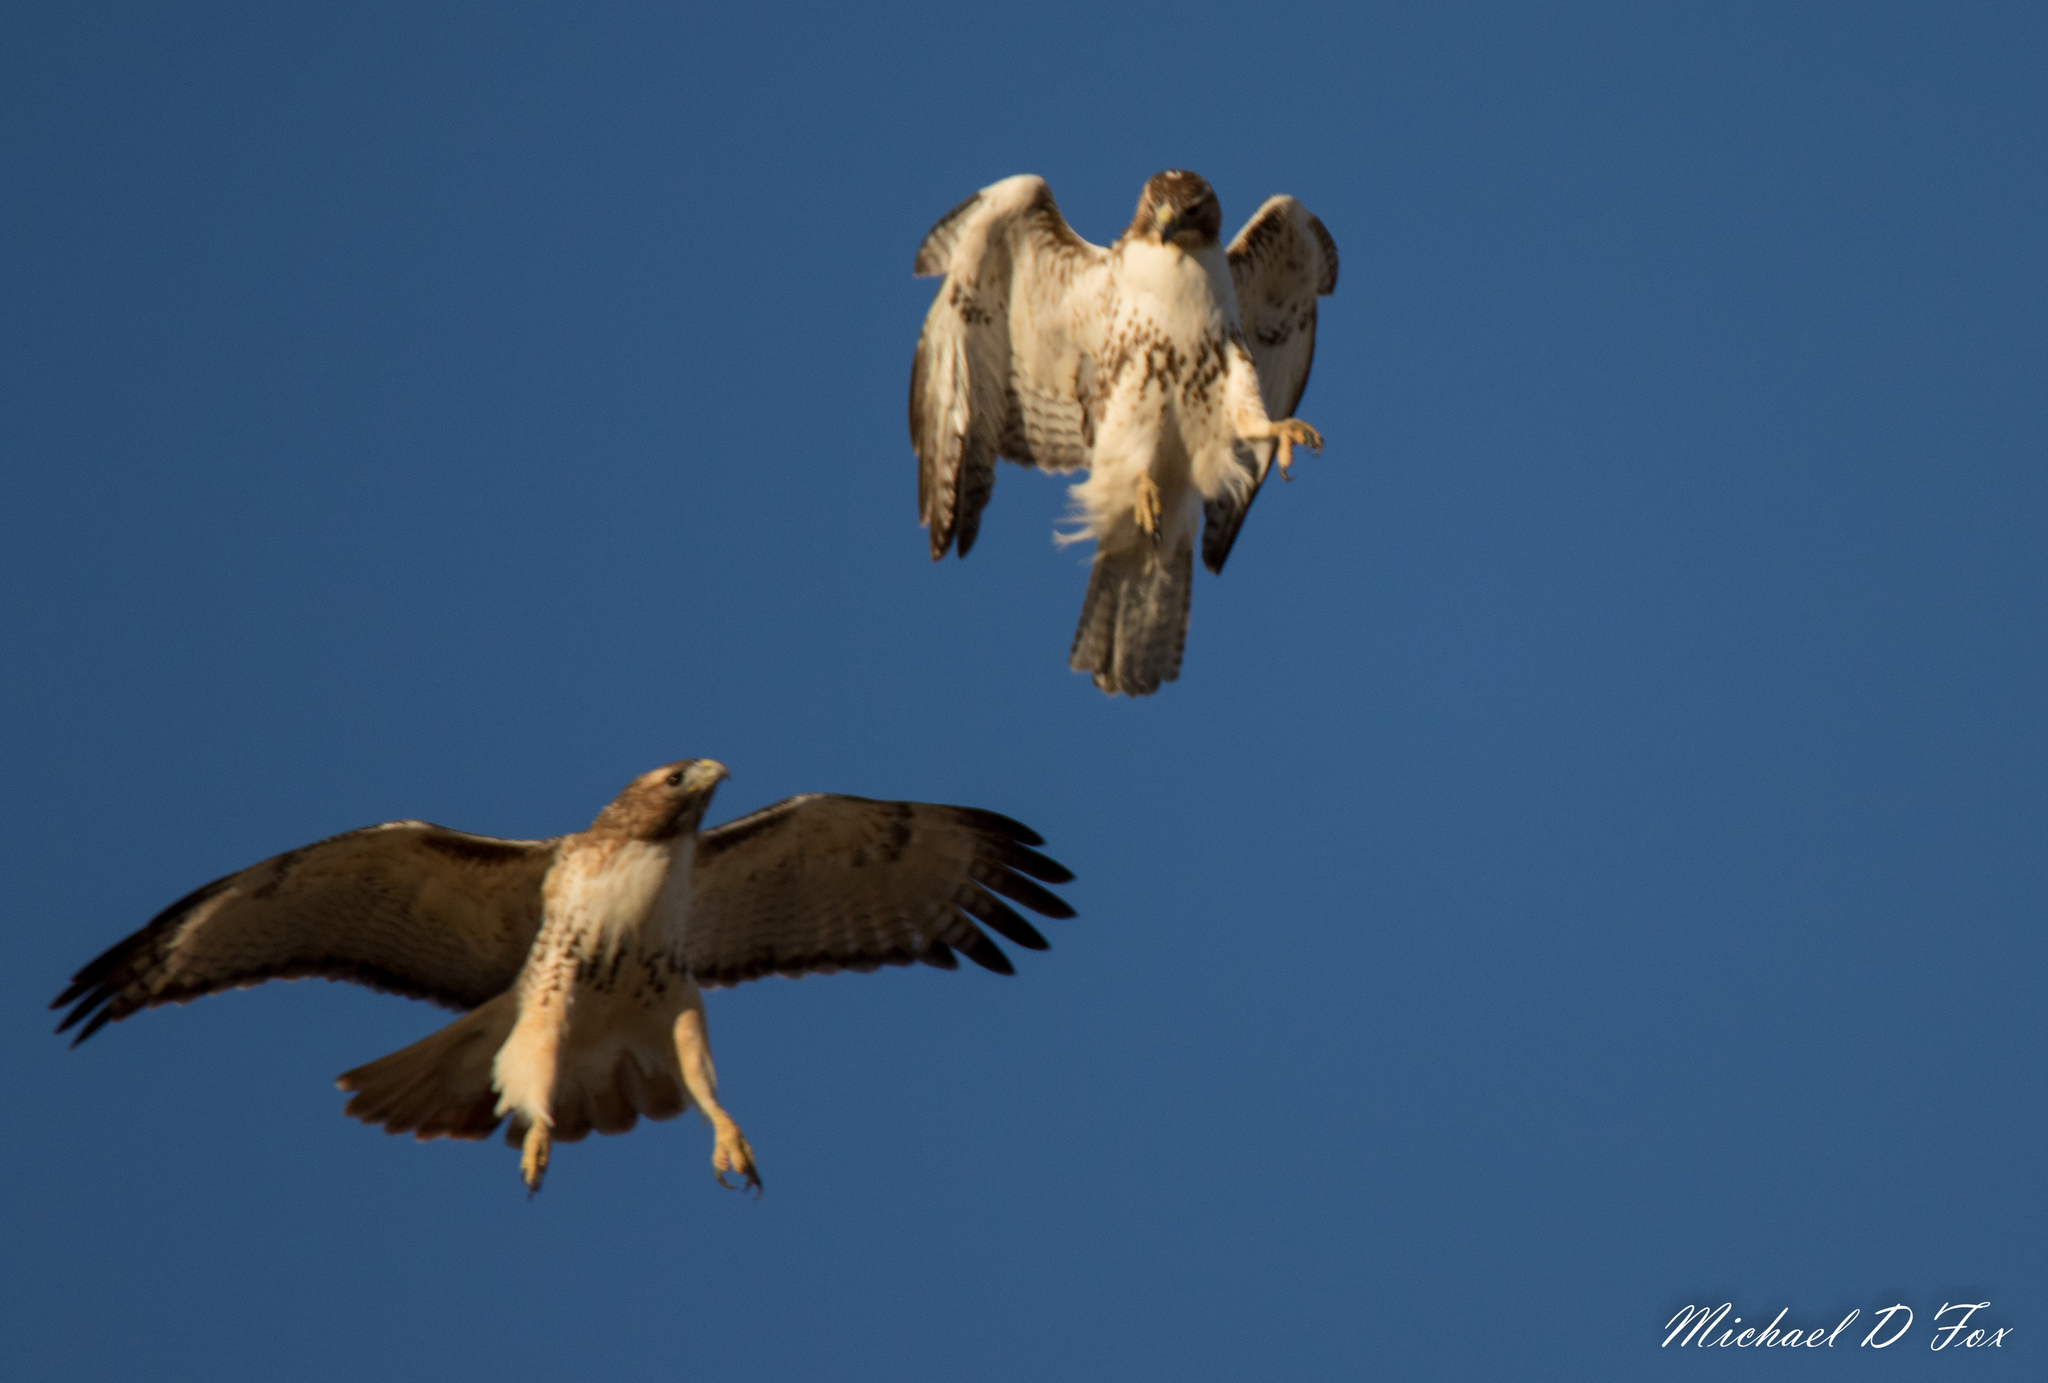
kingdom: Animalia
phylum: Chordata
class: Aves
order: Accipitriformes
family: Accipitridae
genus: Buteo
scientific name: Buteo jamaicensis
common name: Red-tailed hawk
